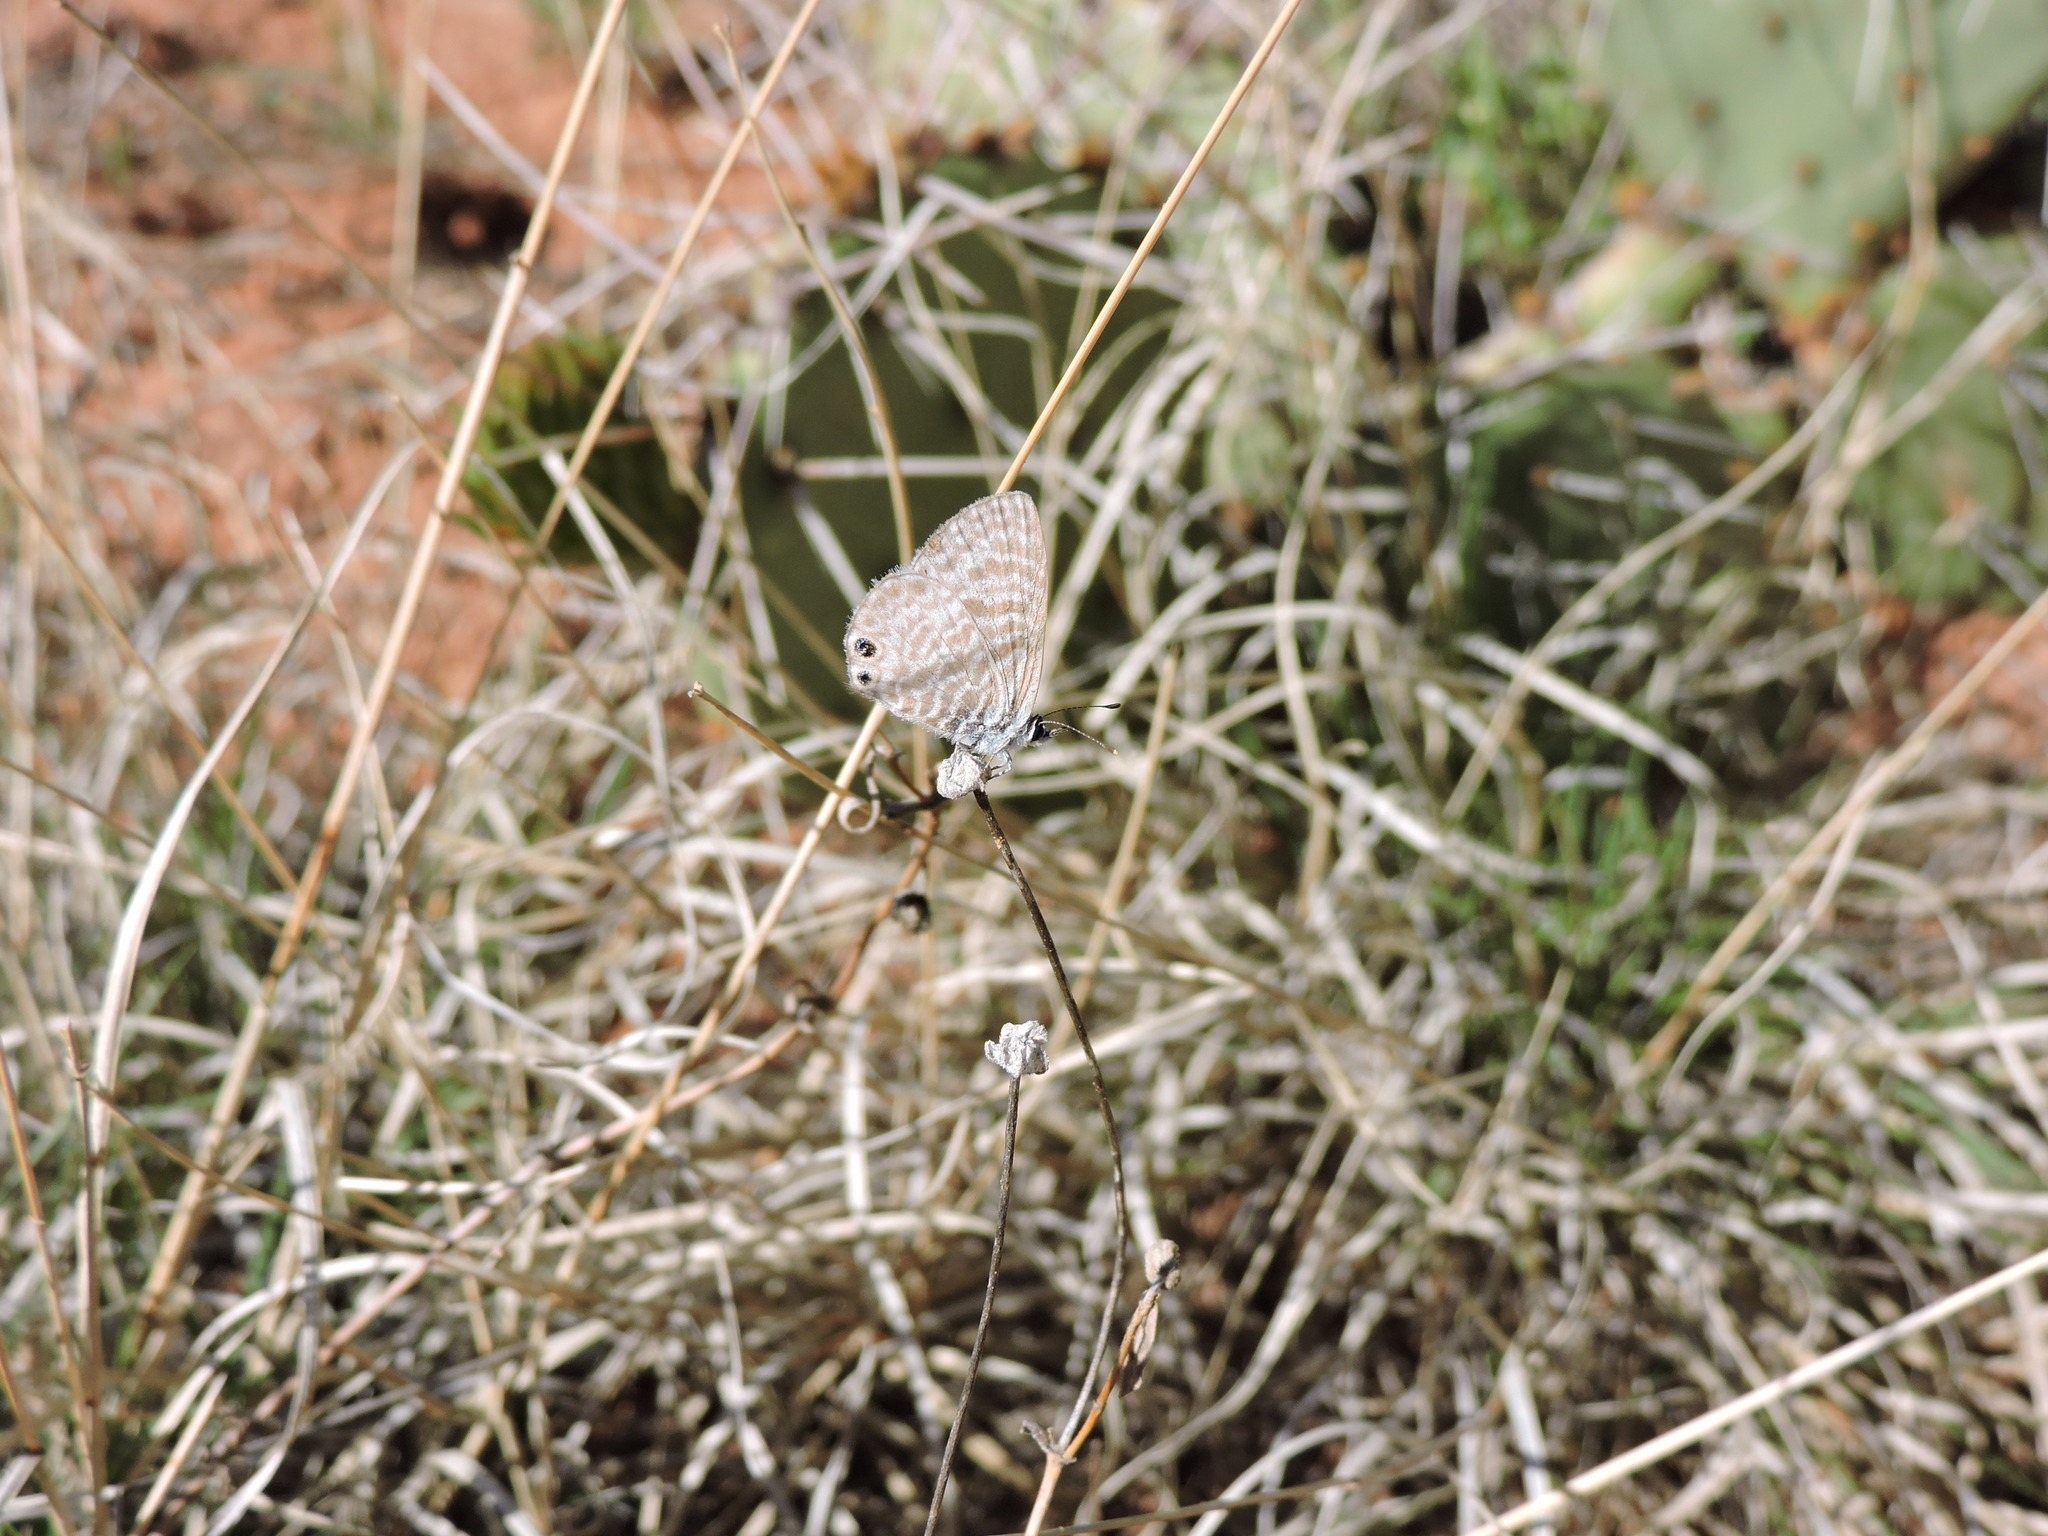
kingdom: Animalia
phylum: Arthropoda
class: Insecta
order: Lepidoptera
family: Lycaenidae
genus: Leptotes
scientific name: Leptotes marina
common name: Marine blue
